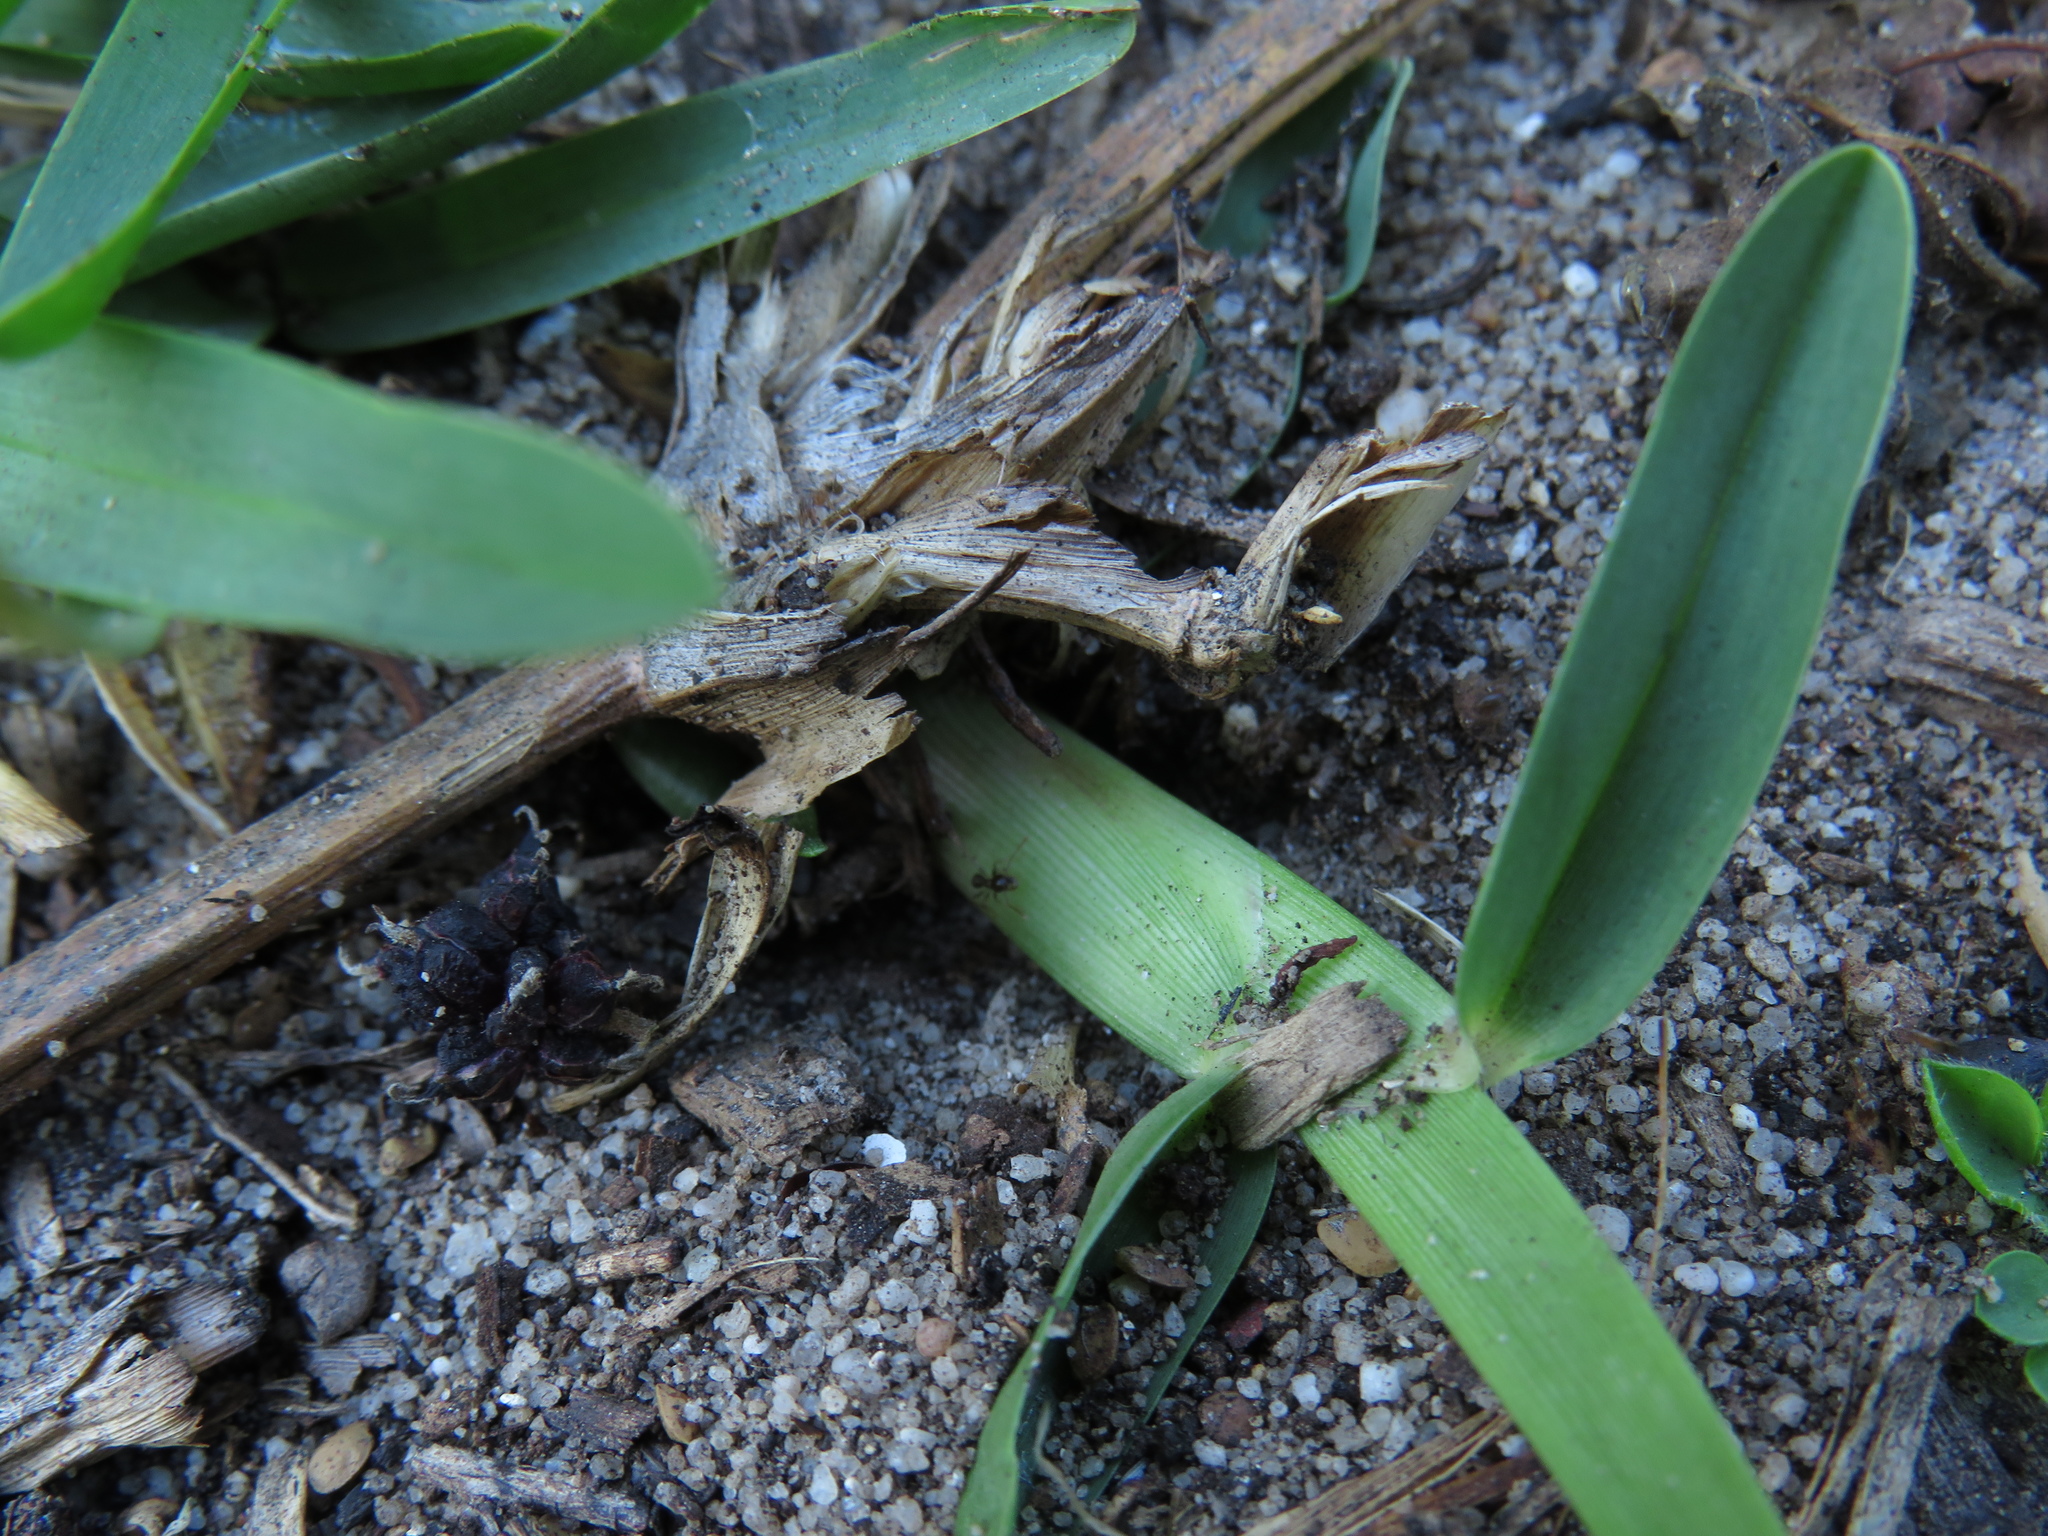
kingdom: Animalia
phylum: Arthropoda
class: Insecta
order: Hymenoptera
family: Formicidae
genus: Pheidole
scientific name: Pheidole megacephala
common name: Bigheaded ant
